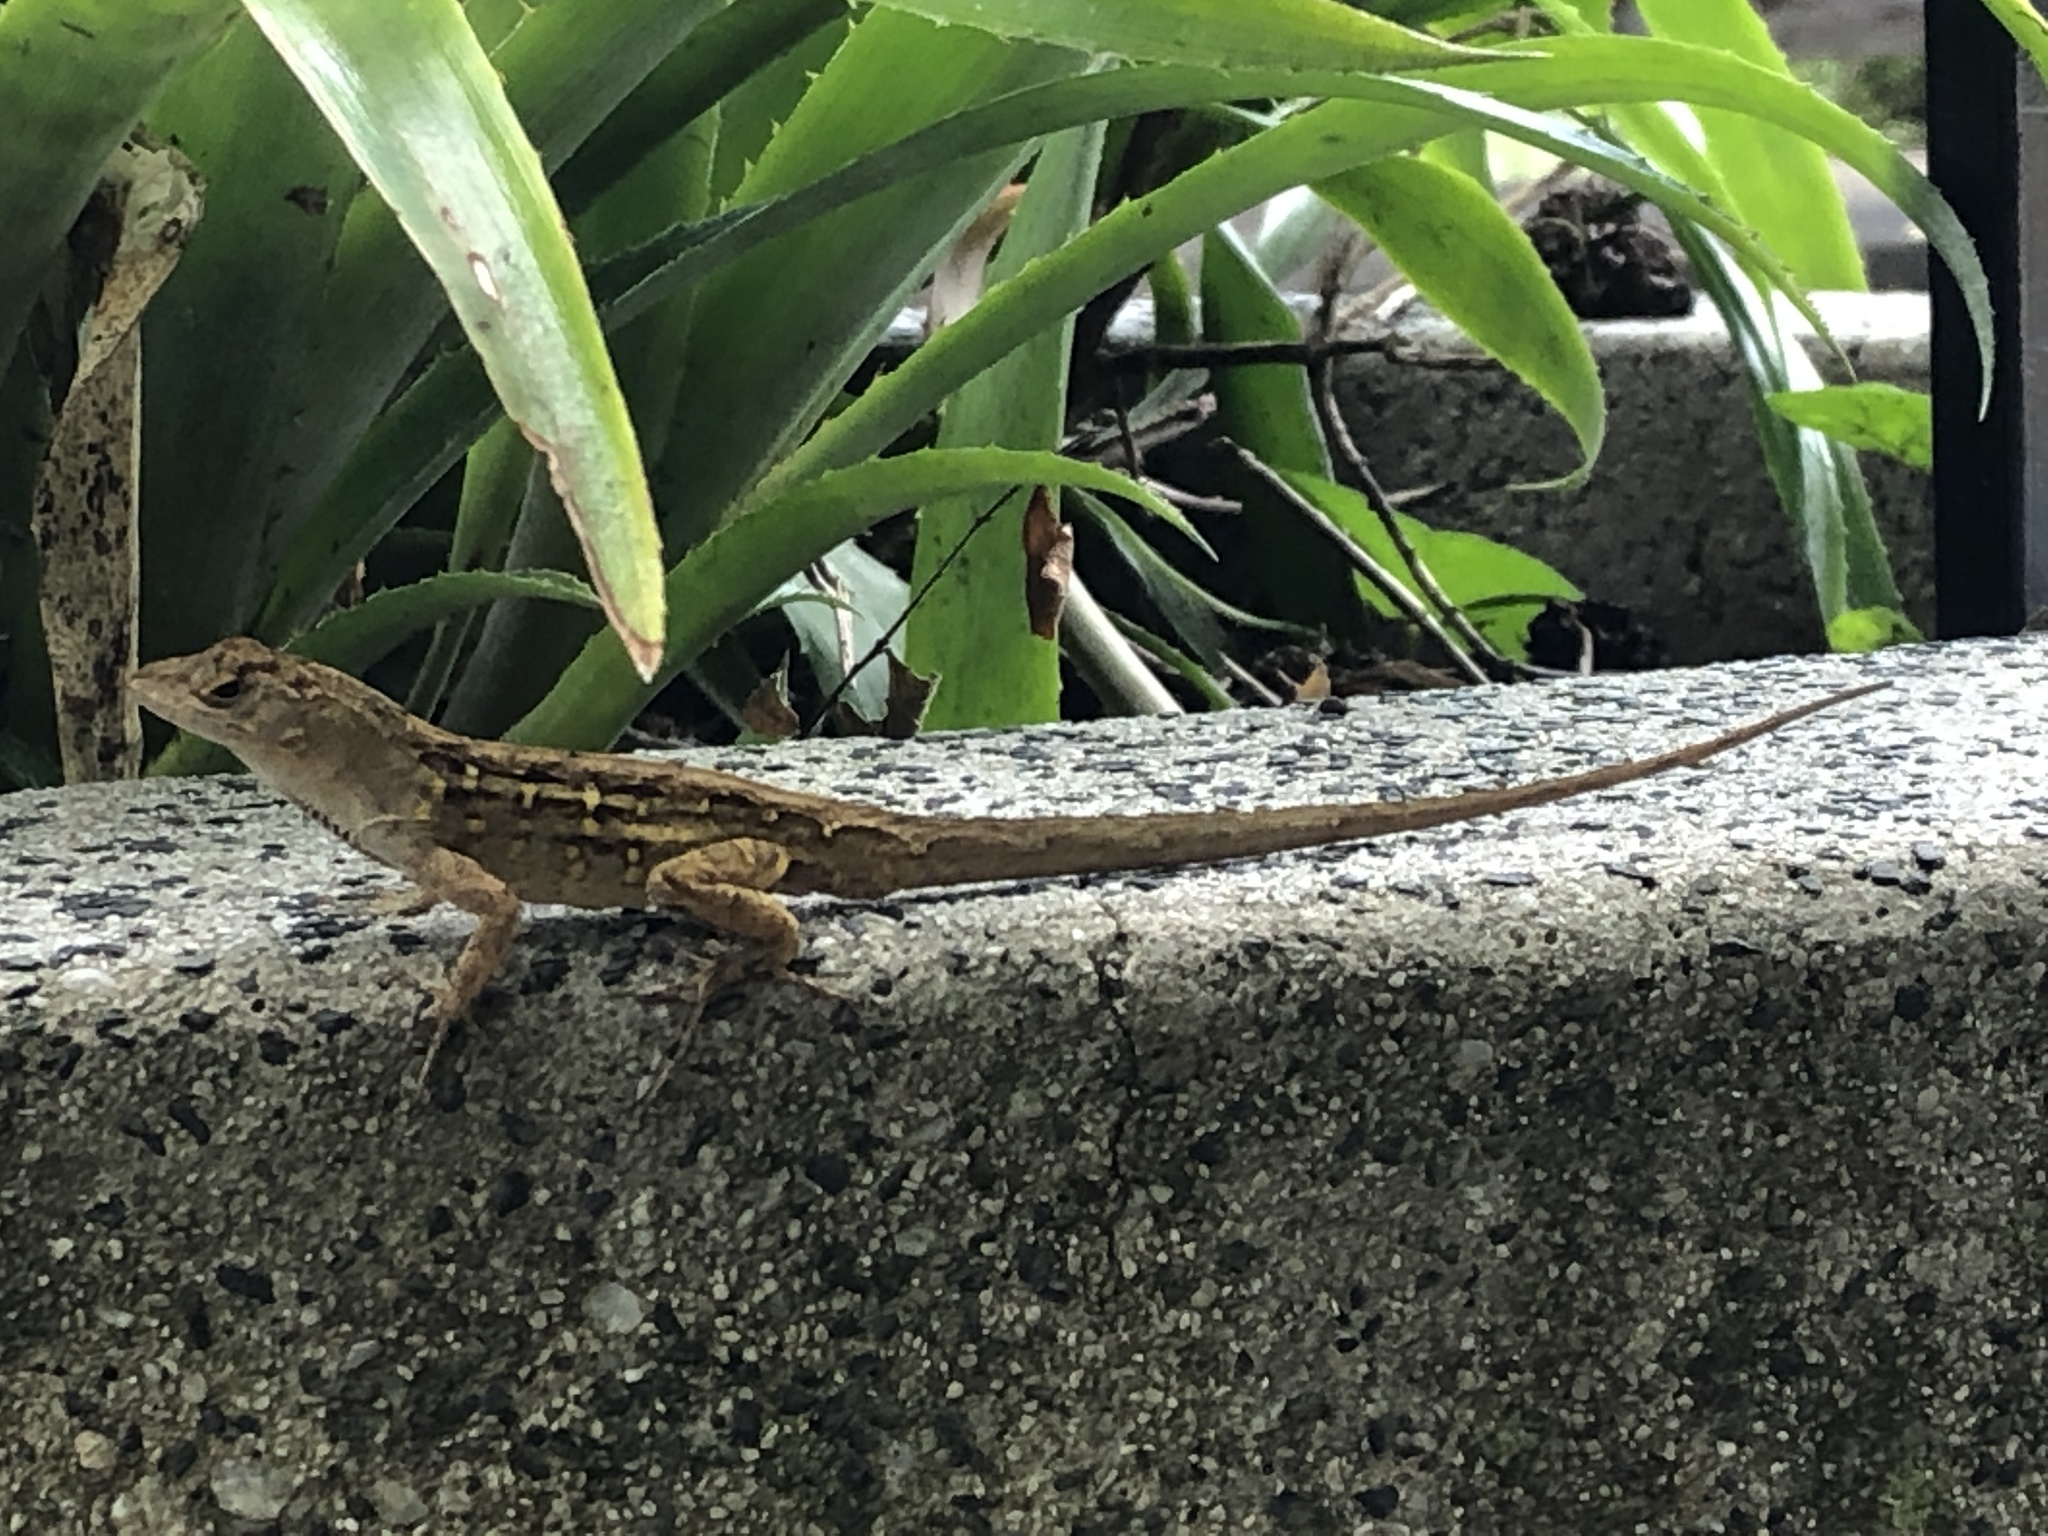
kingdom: Animalia
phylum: Chordata
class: Squamata
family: Dactyloidae
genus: Anolis
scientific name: Anolis sagrei
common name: Brown anole
